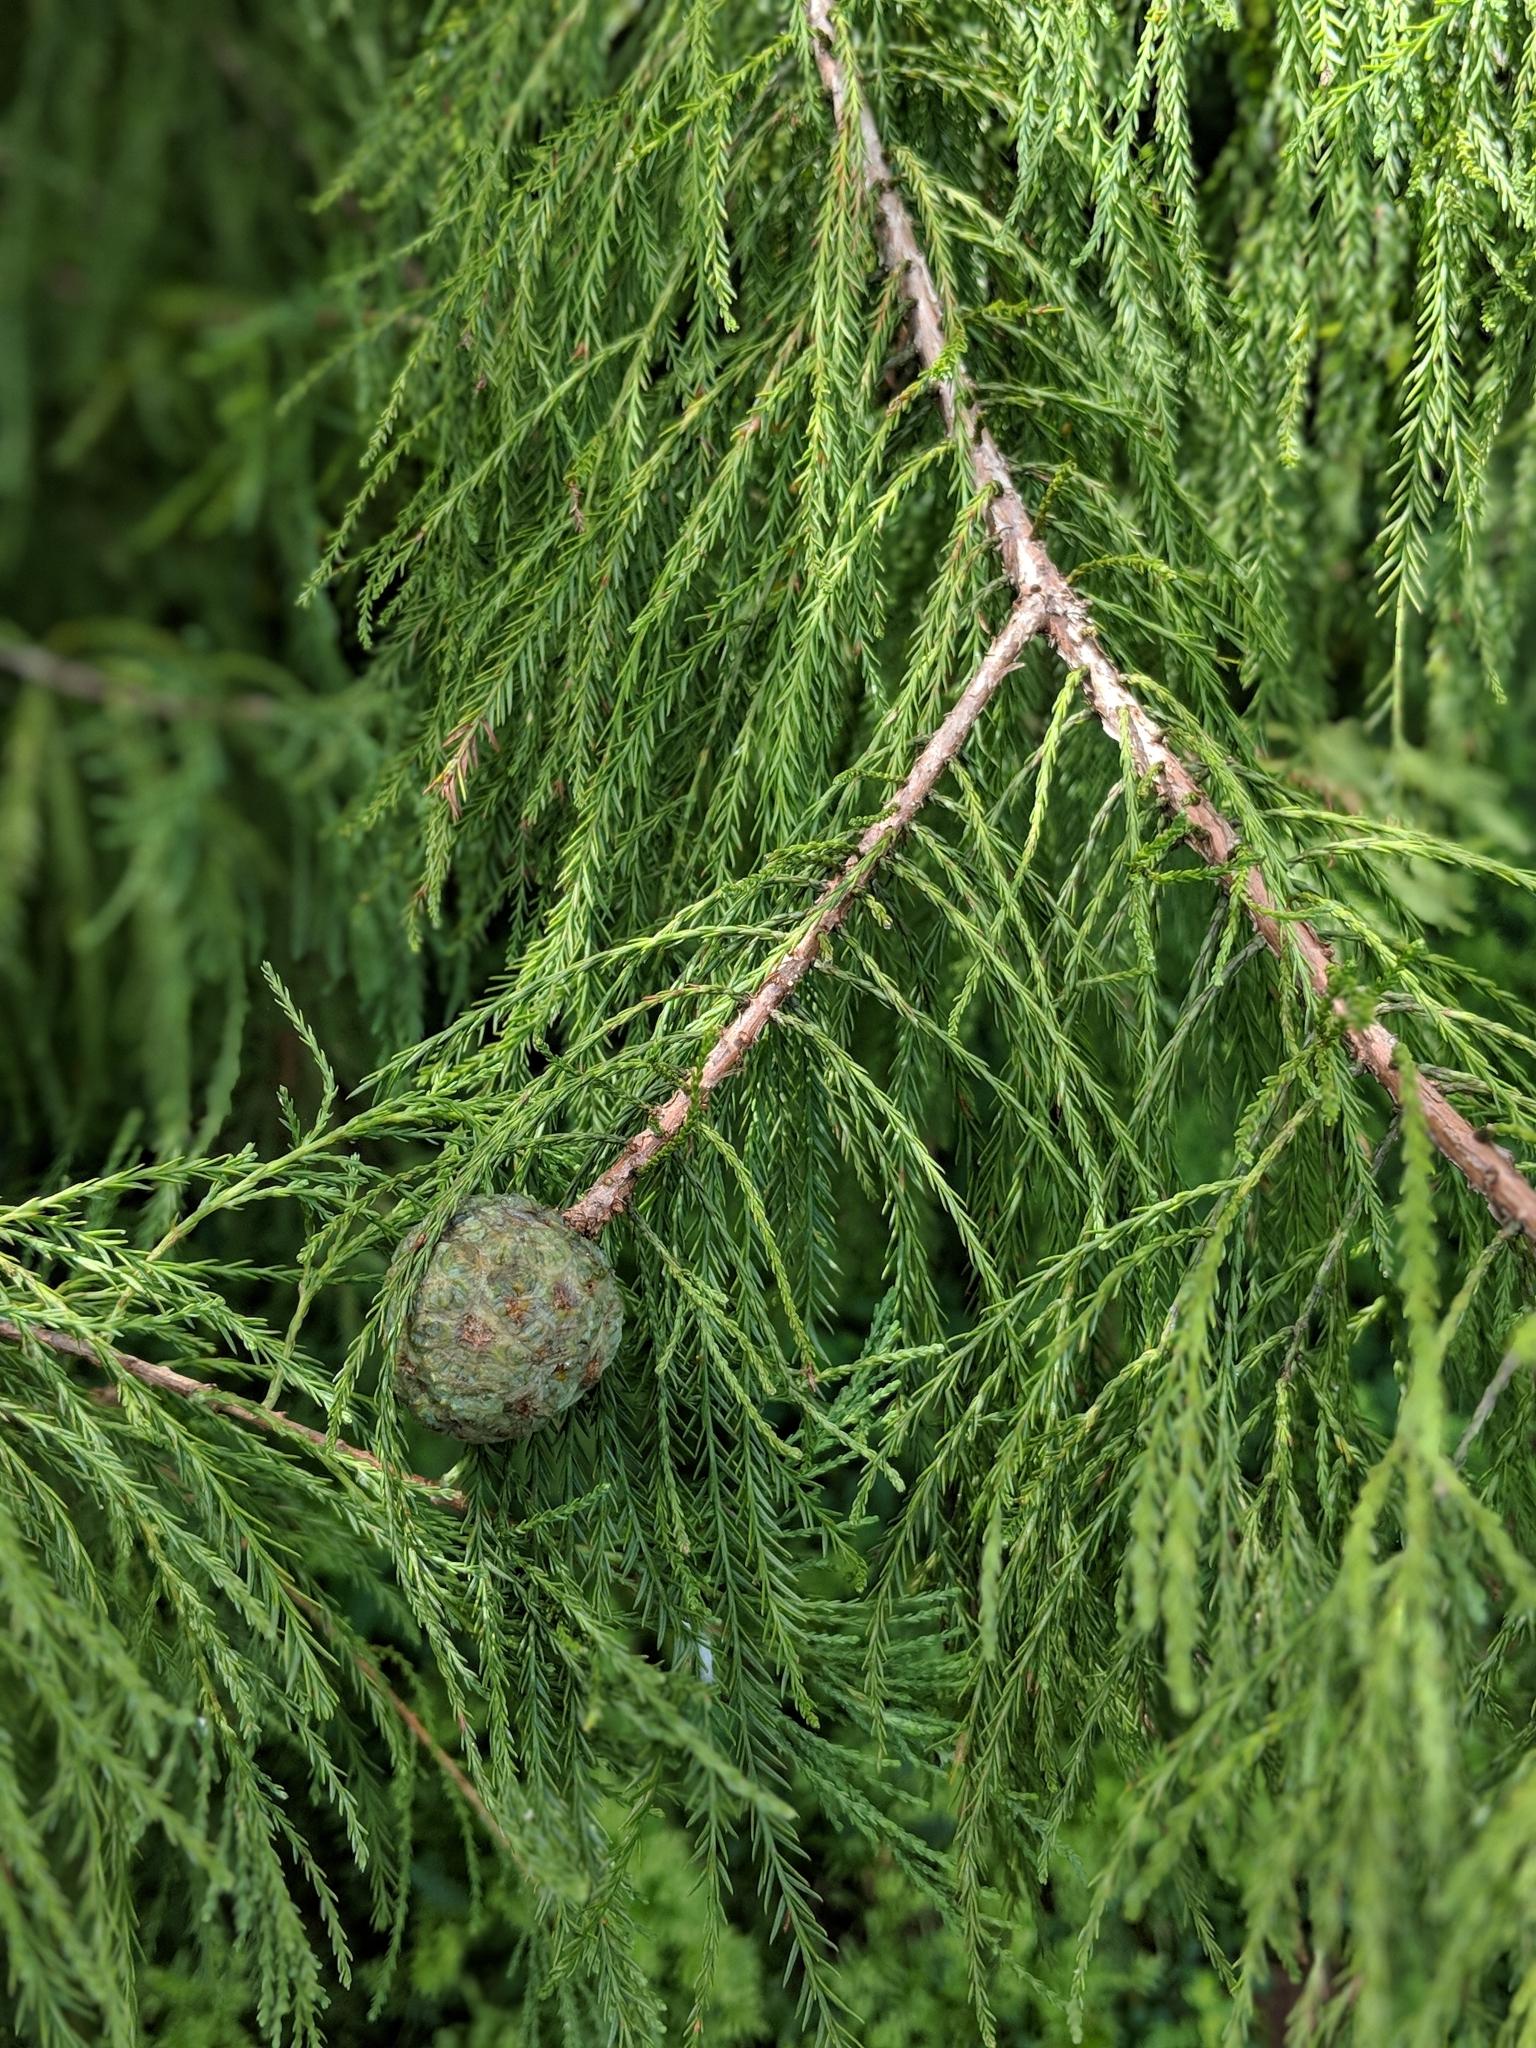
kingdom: Plantae
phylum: Tracheophyta
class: Pinopsida
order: Pinales
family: Cupressaceae
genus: Taxodium
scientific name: Taxodium distichum
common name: Bald cypress
